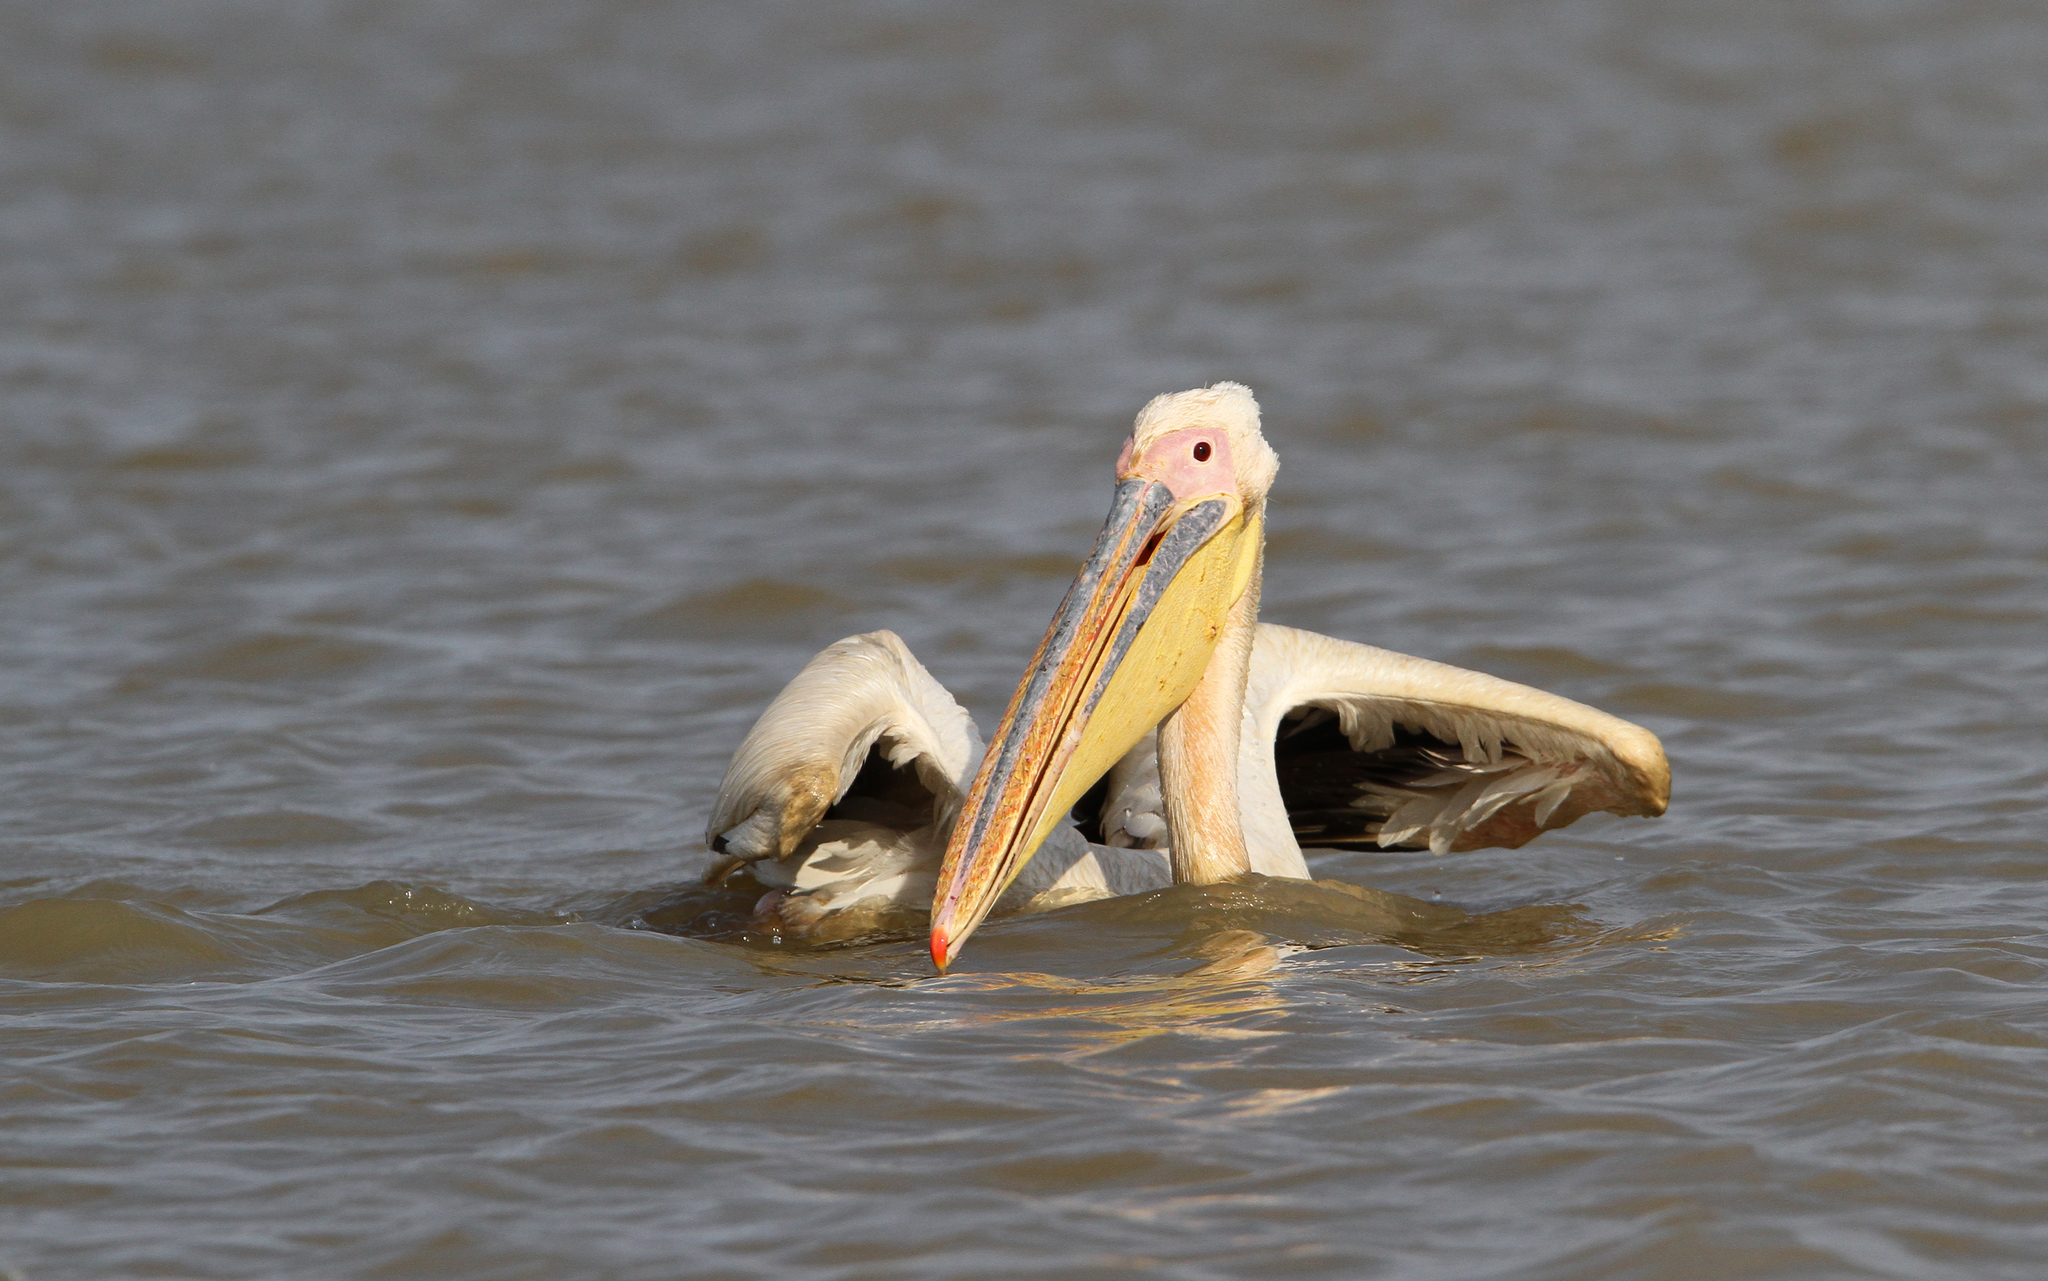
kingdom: Animalia
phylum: Chordata
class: Aves
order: Pelecaniformes
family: Pelecanidae
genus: Pelecanus
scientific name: Pelecanus onocrotalus
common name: Great white pelican
